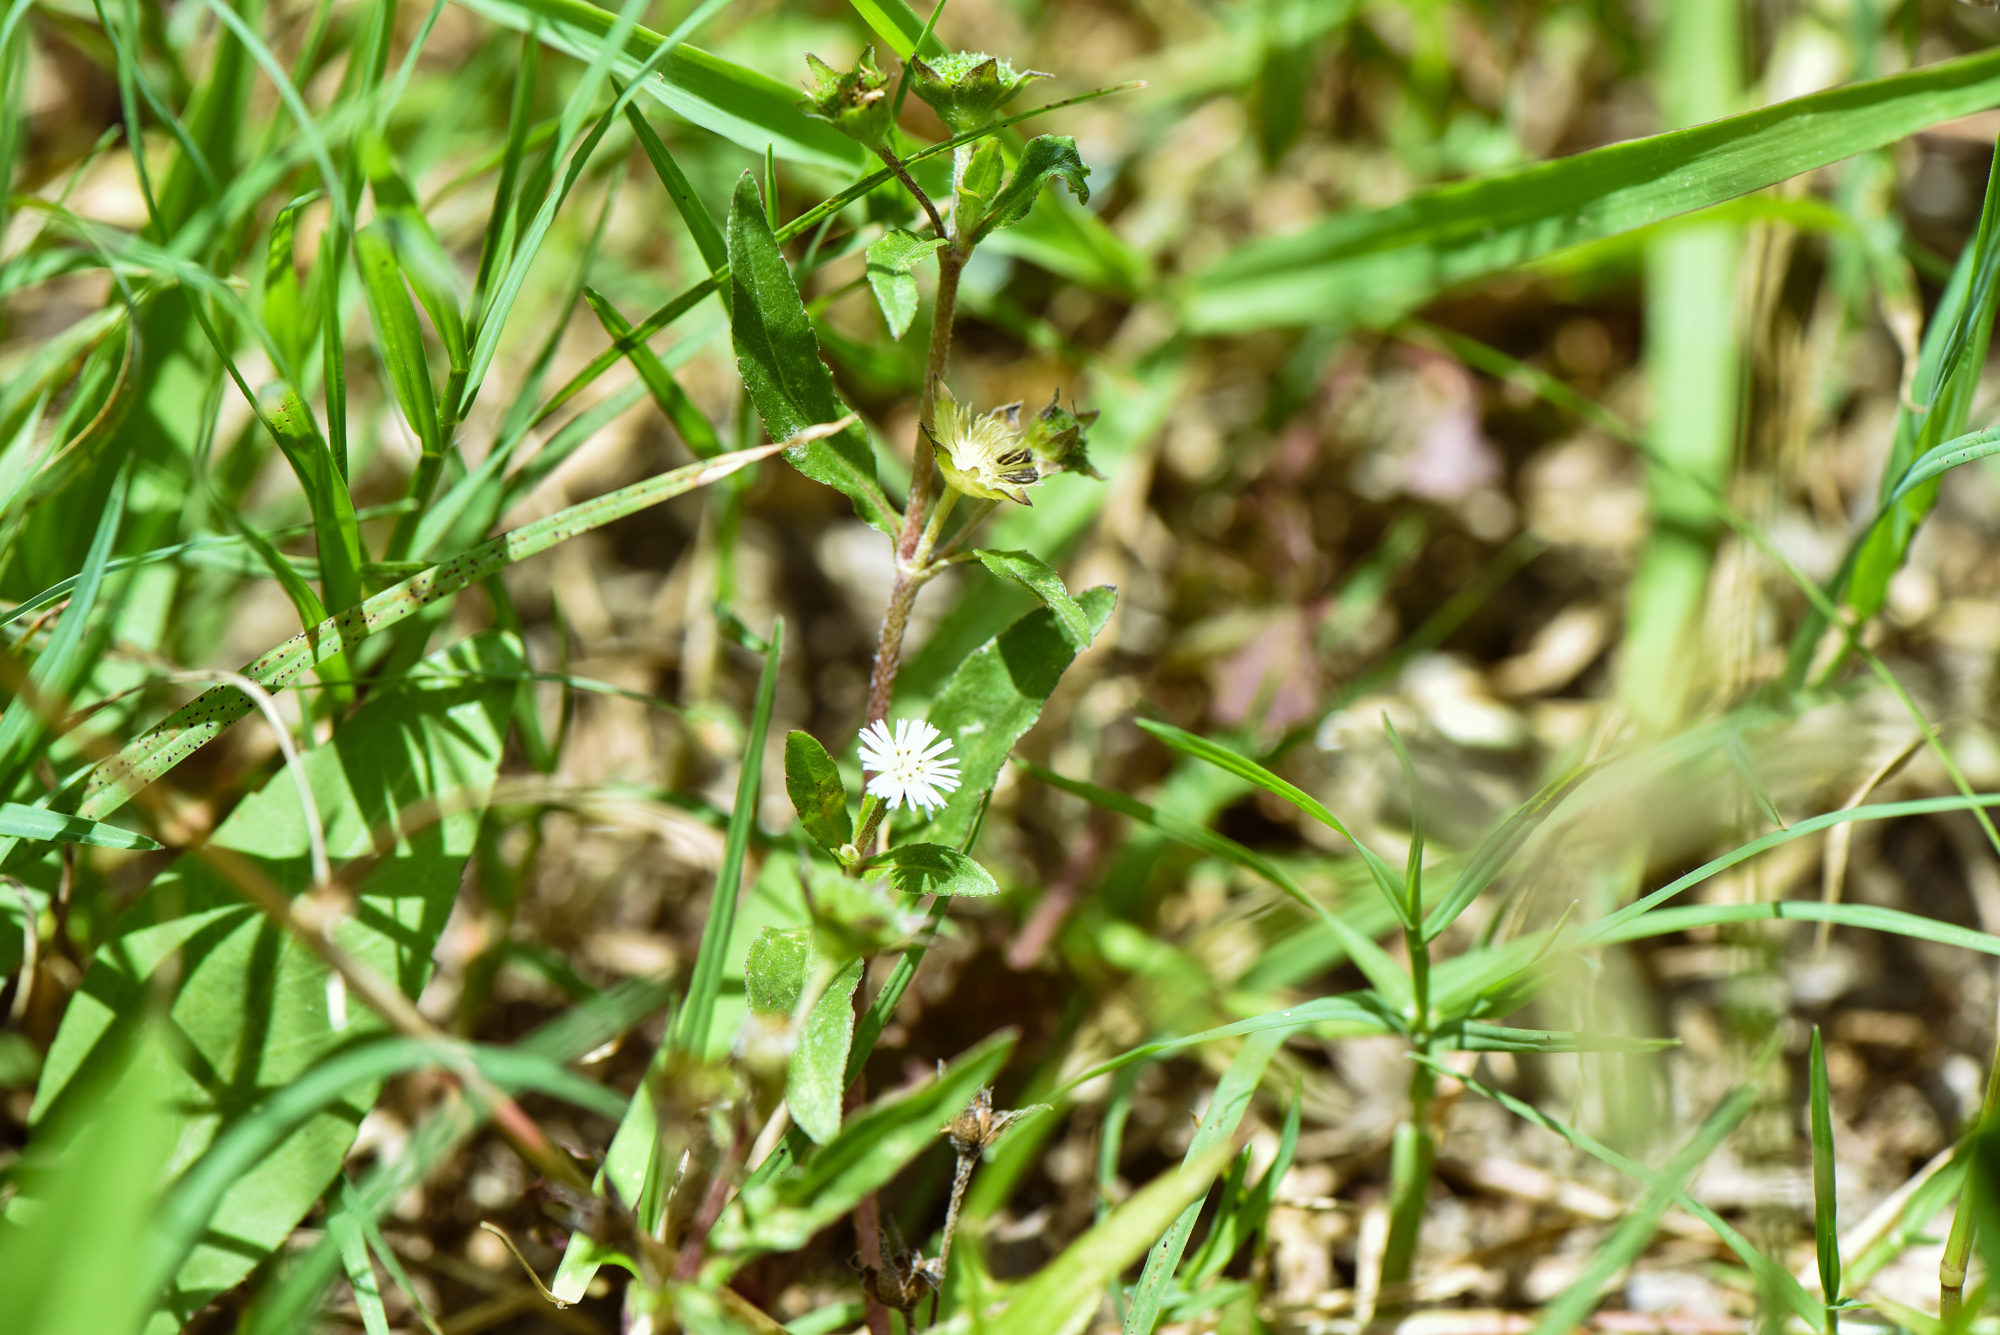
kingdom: Plantae
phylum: Tracheophyta
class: Magnoliopsida
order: Asterales
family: Asteraceae
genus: Eclipta
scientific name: Eclipta prostrata
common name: False daisy
